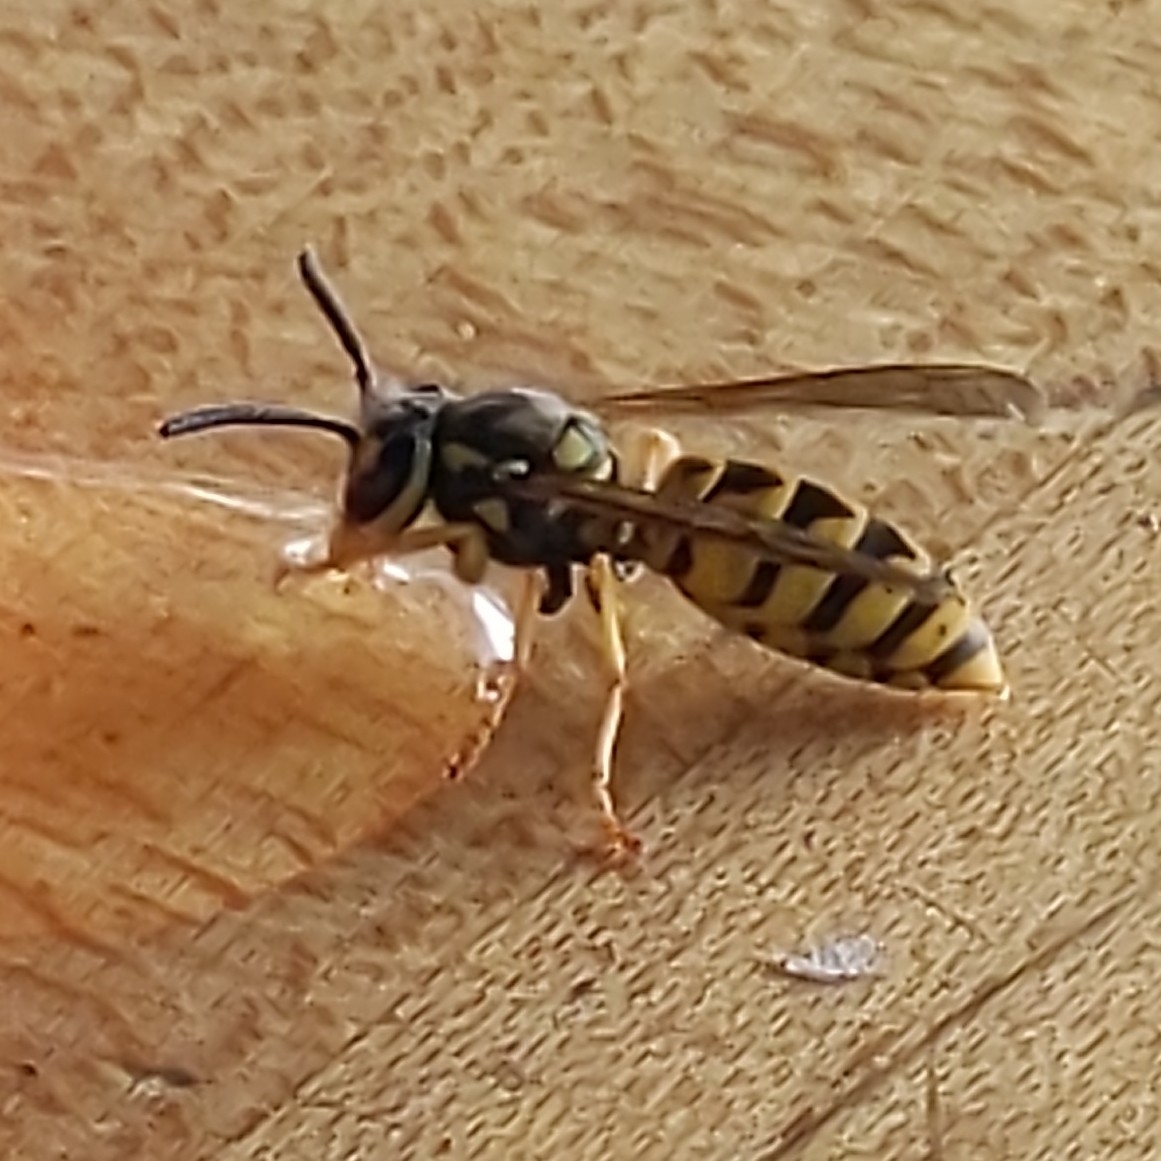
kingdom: Animalia
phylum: Arthropoda
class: Insecta
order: Hymenoptera
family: Vespidae
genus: Vespula
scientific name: Vespula germanica
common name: German wasp
